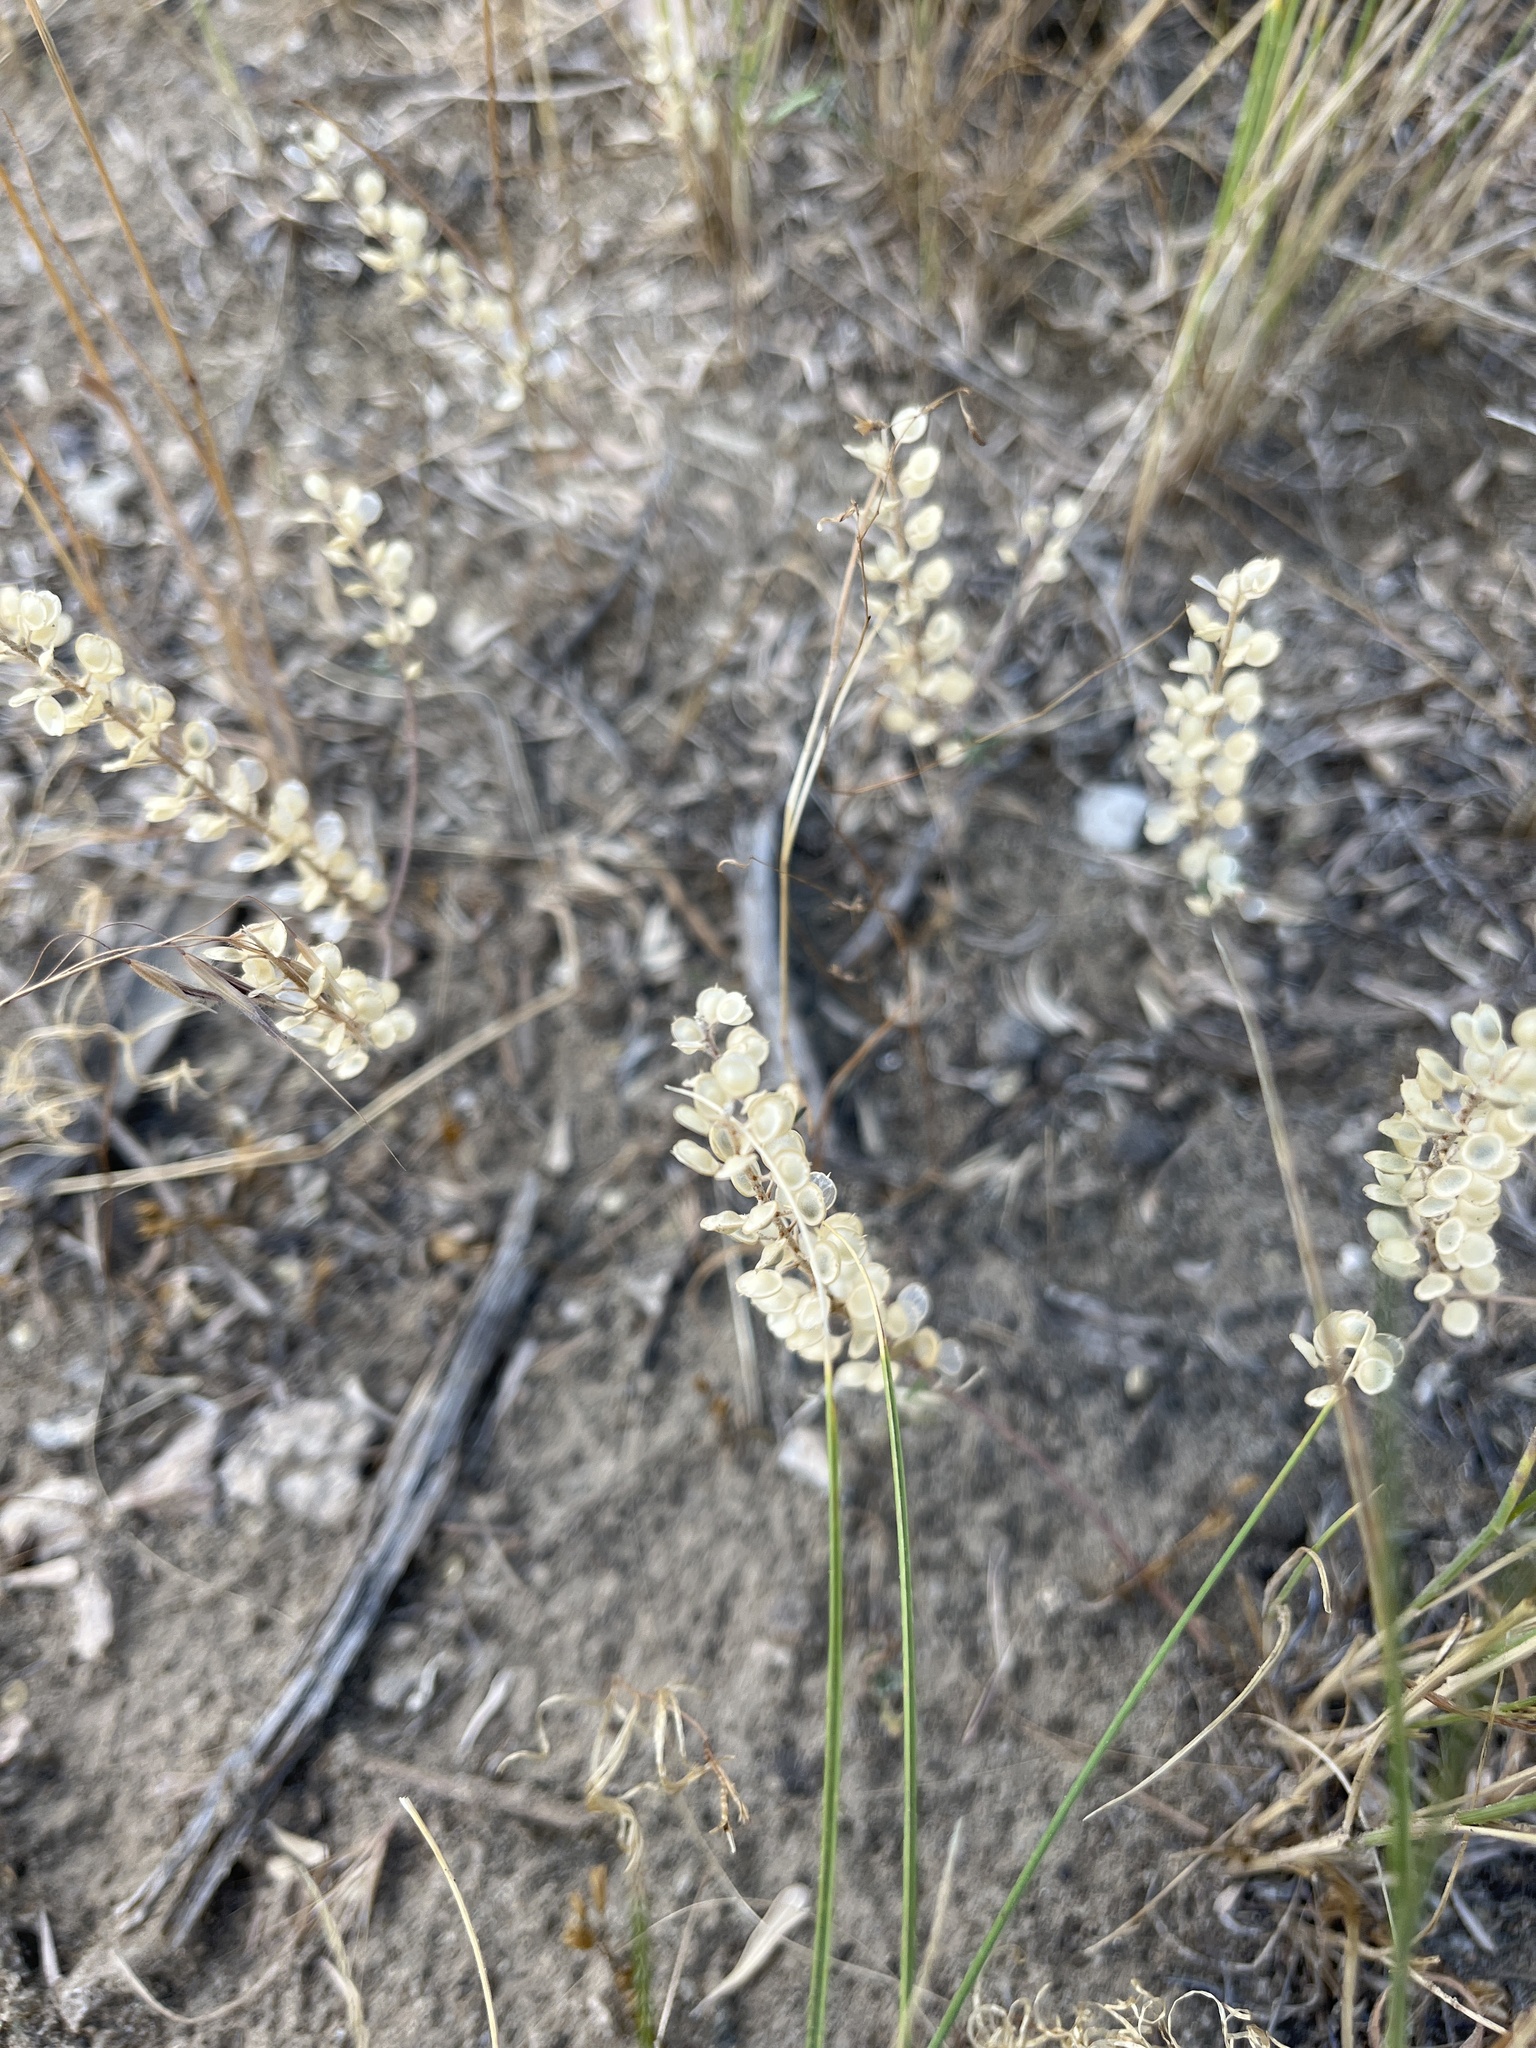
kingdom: Plantae
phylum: Tracheophyta
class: Magnoliopsida
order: Brassicales
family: Brassicaceae
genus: Alyssum
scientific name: Alyssum turkestanicum
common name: Desert alyssum
